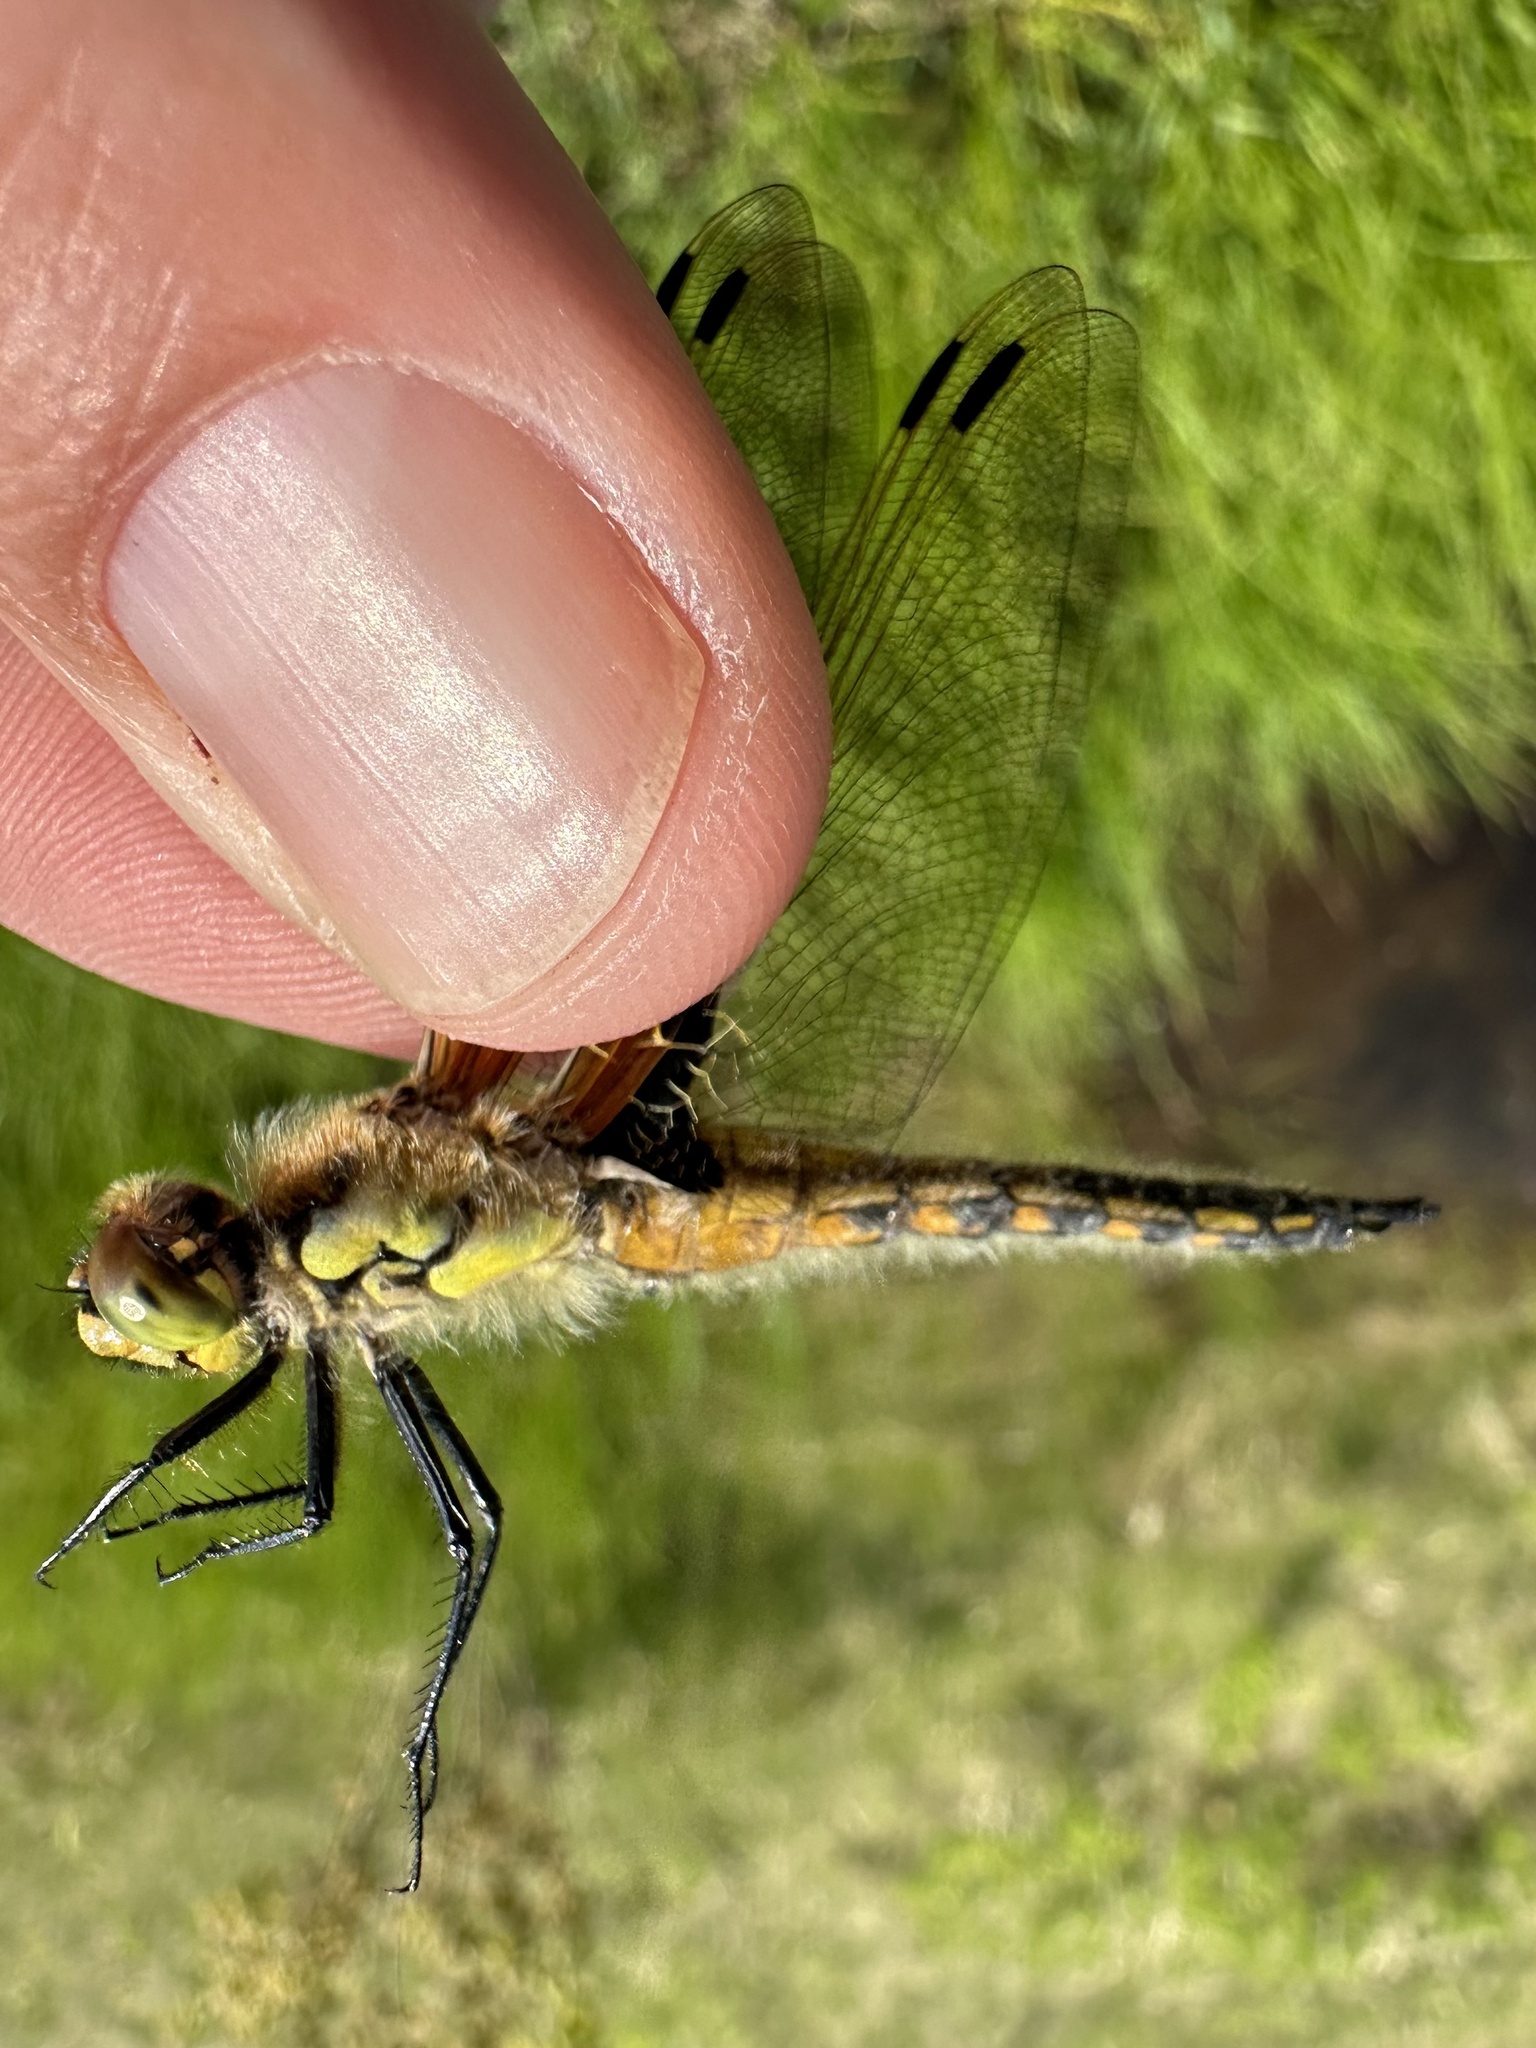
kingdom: Animalia
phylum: Arthropoda
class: Insecta
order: Odonata
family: Libellulidae
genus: Libellula
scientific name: Libellula quadrimaculata
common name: Four-spotted chaser
